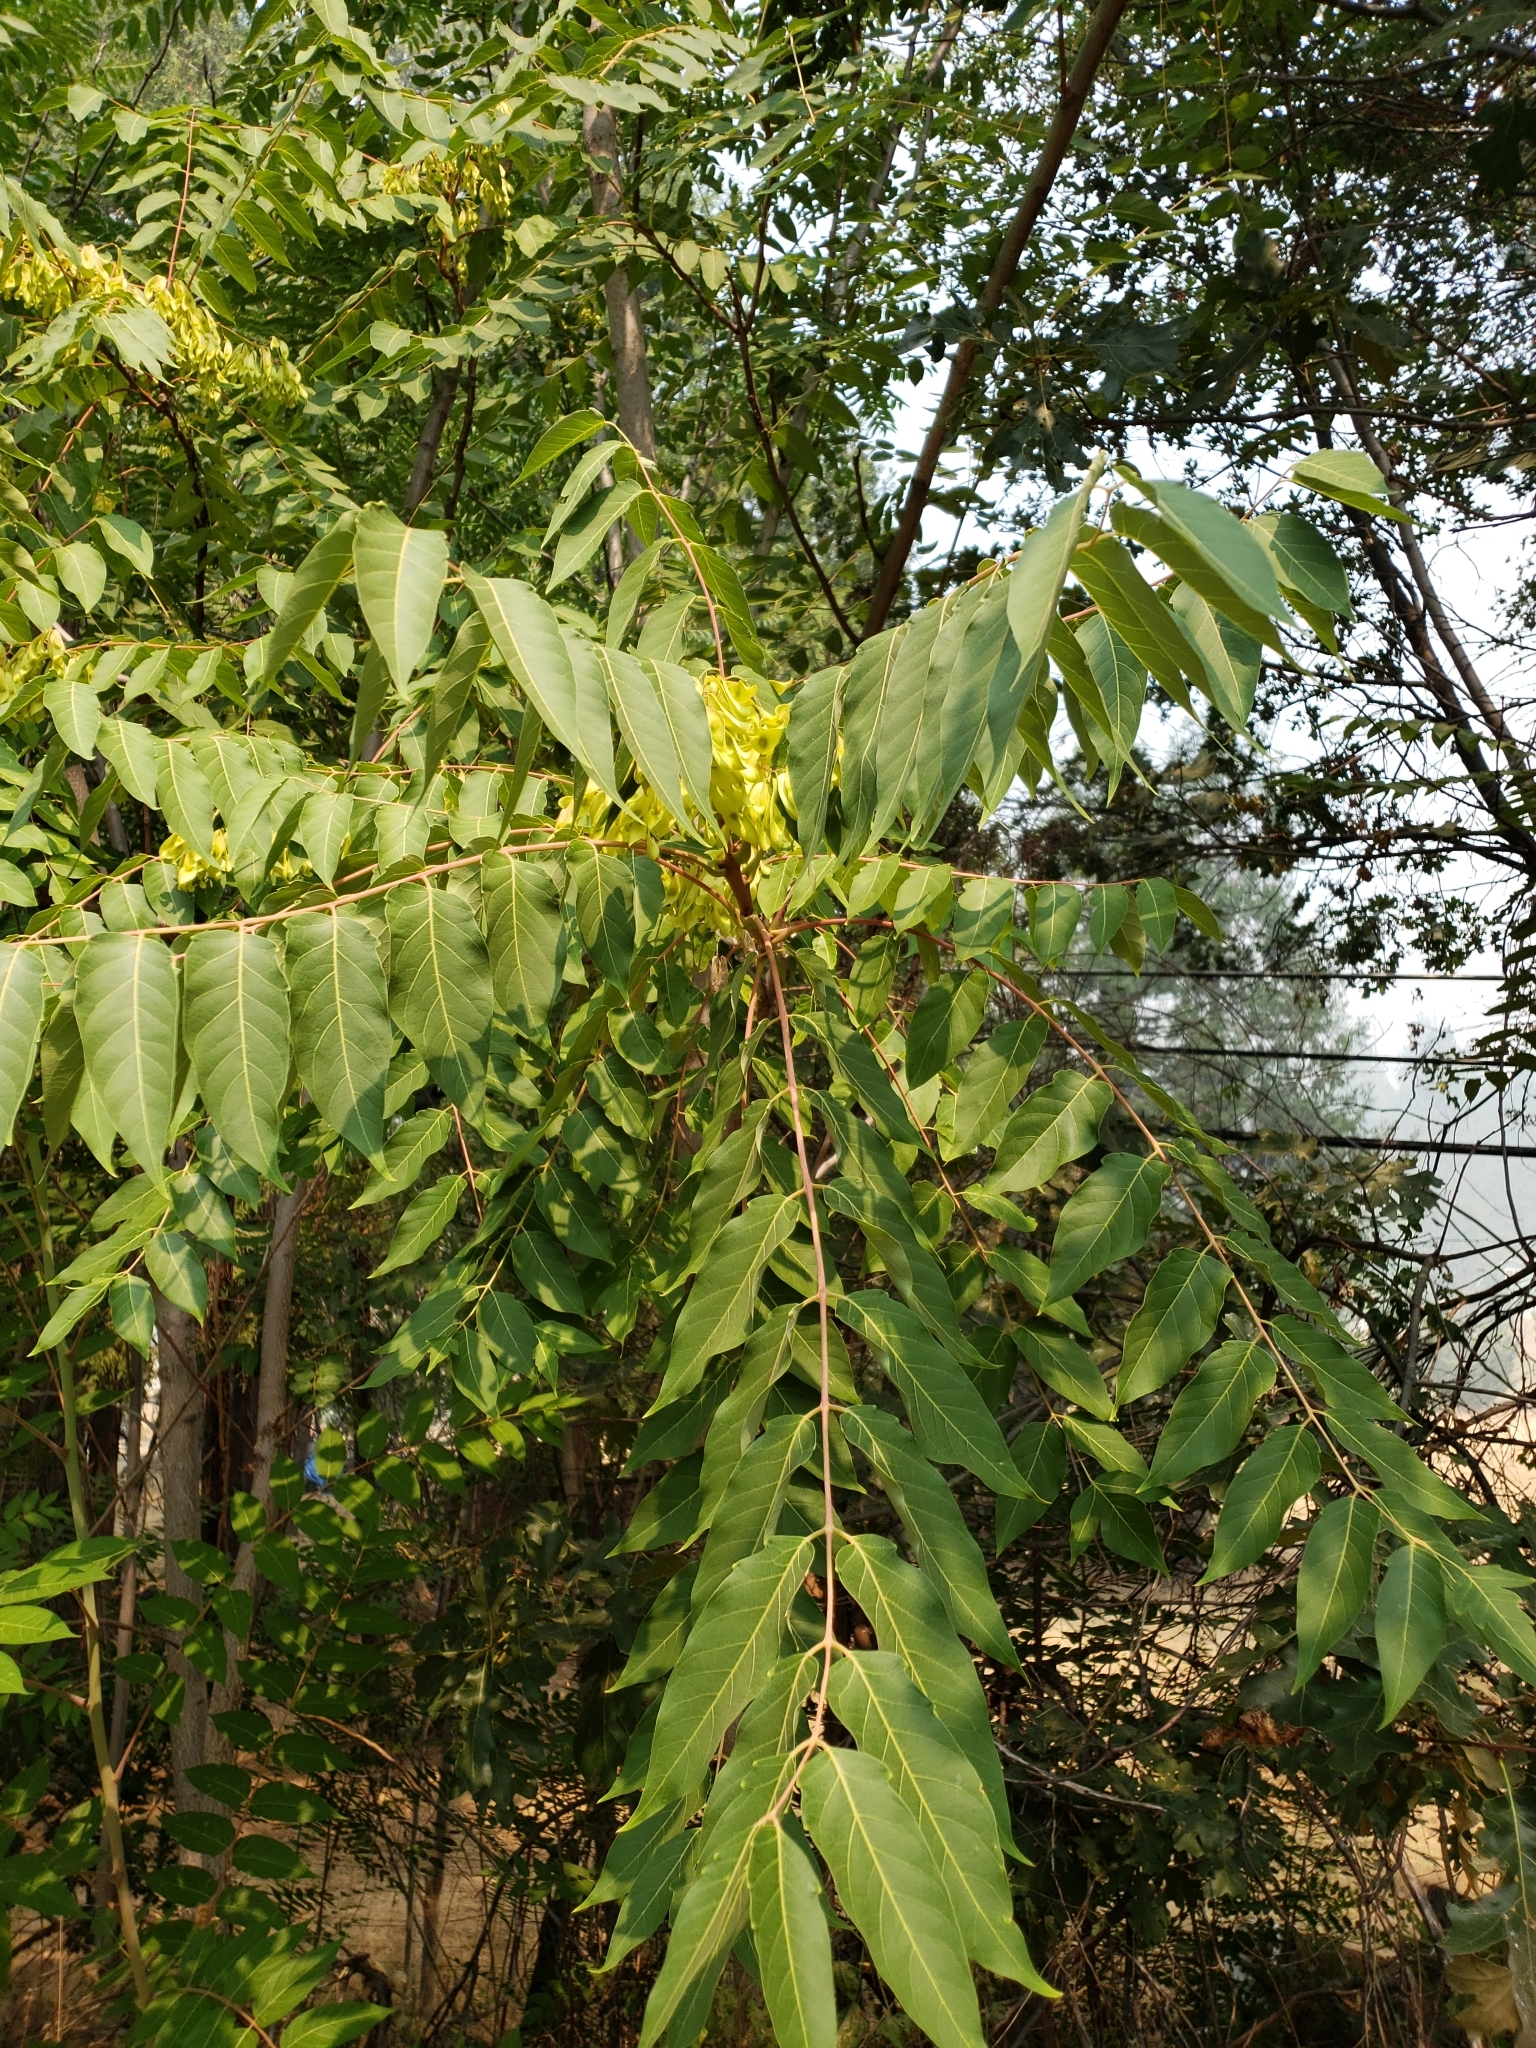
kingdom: Plantae
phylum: Tracheophyta
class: Magnoliopsida
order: Sapindales
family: Simaroubaceae
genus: Ailanthus
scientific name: Ailanthus altissima
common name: Tree-of-heaven
